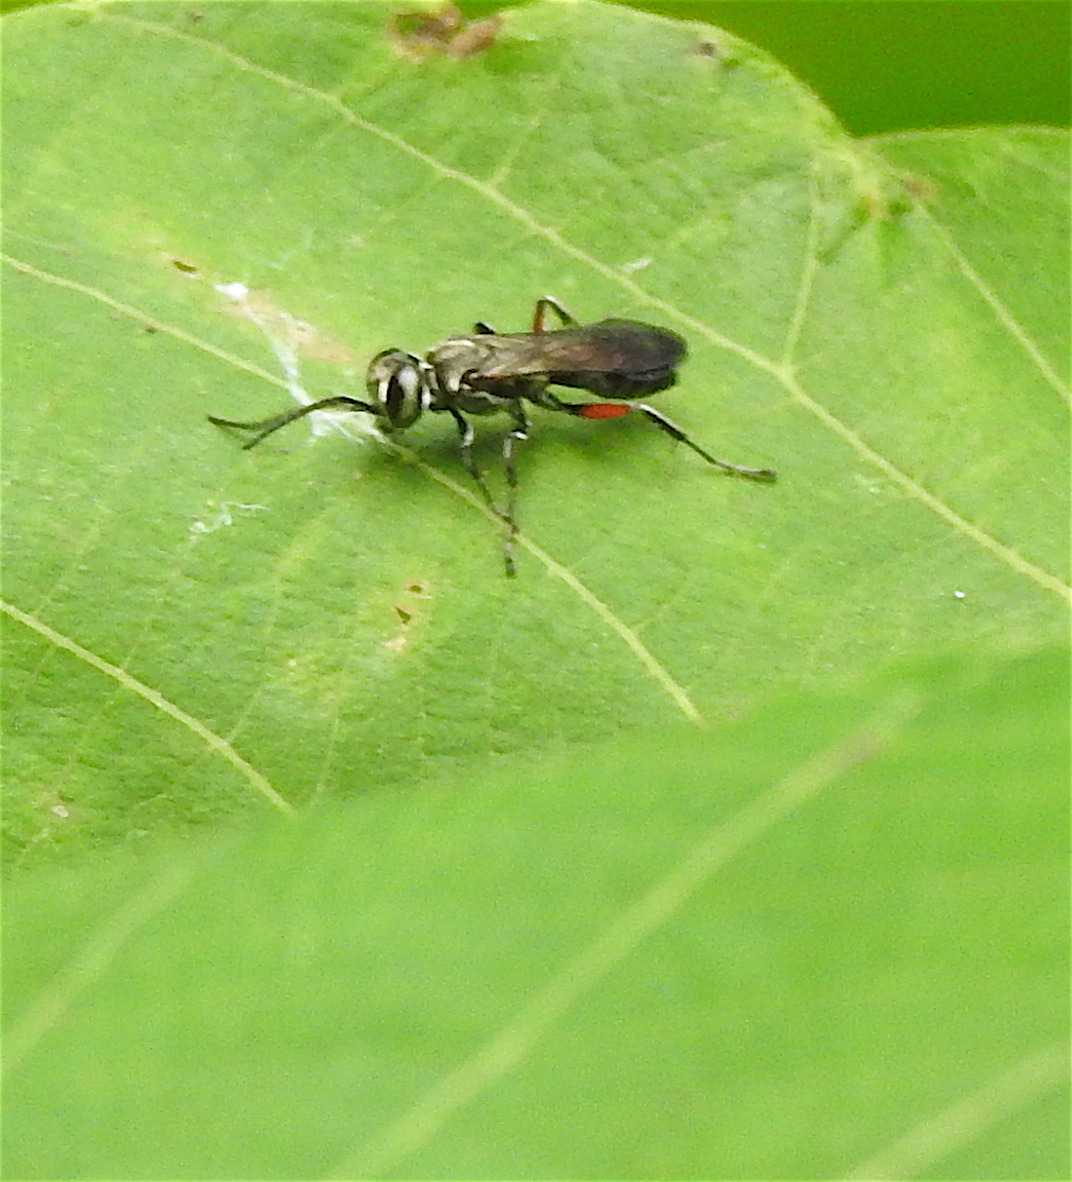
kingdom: Animalia
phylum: Arthropoda
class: Insecta
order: Hymenoptera
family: Crabronidae
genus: Liris
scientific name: Liris subtessellatus
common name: Crabronid wasp
